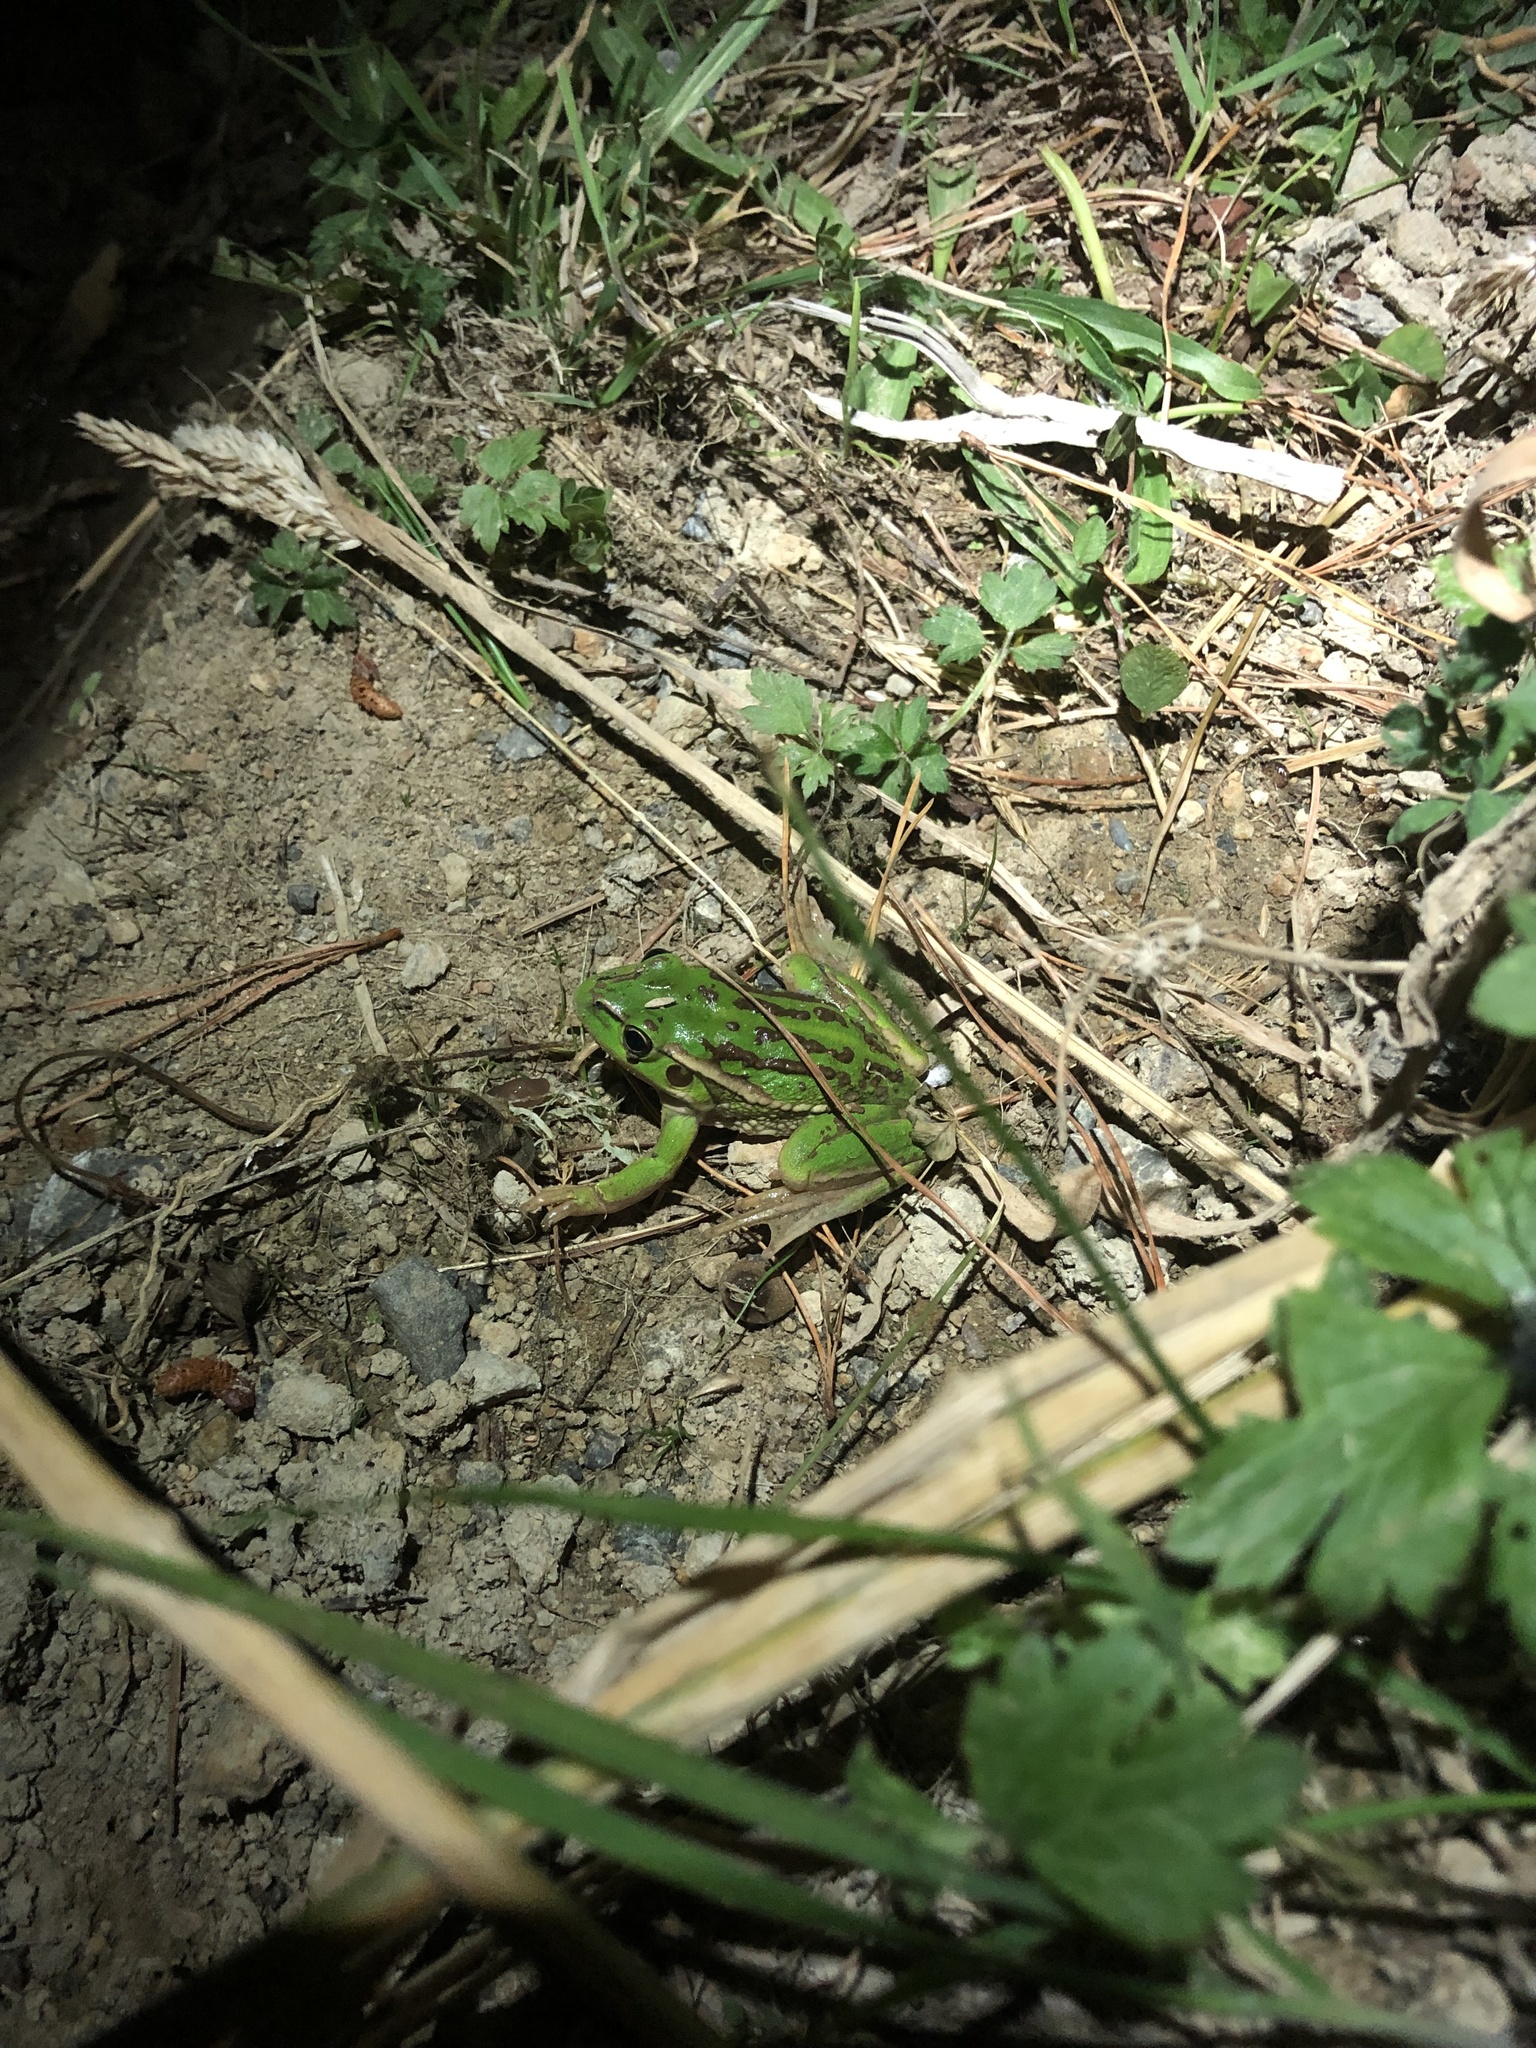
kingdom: Animalia
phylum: Chordata
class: Amphibia
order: Anura
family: Pelodryadidae
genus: Ranoidea
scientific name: Ranoidea raniformis
